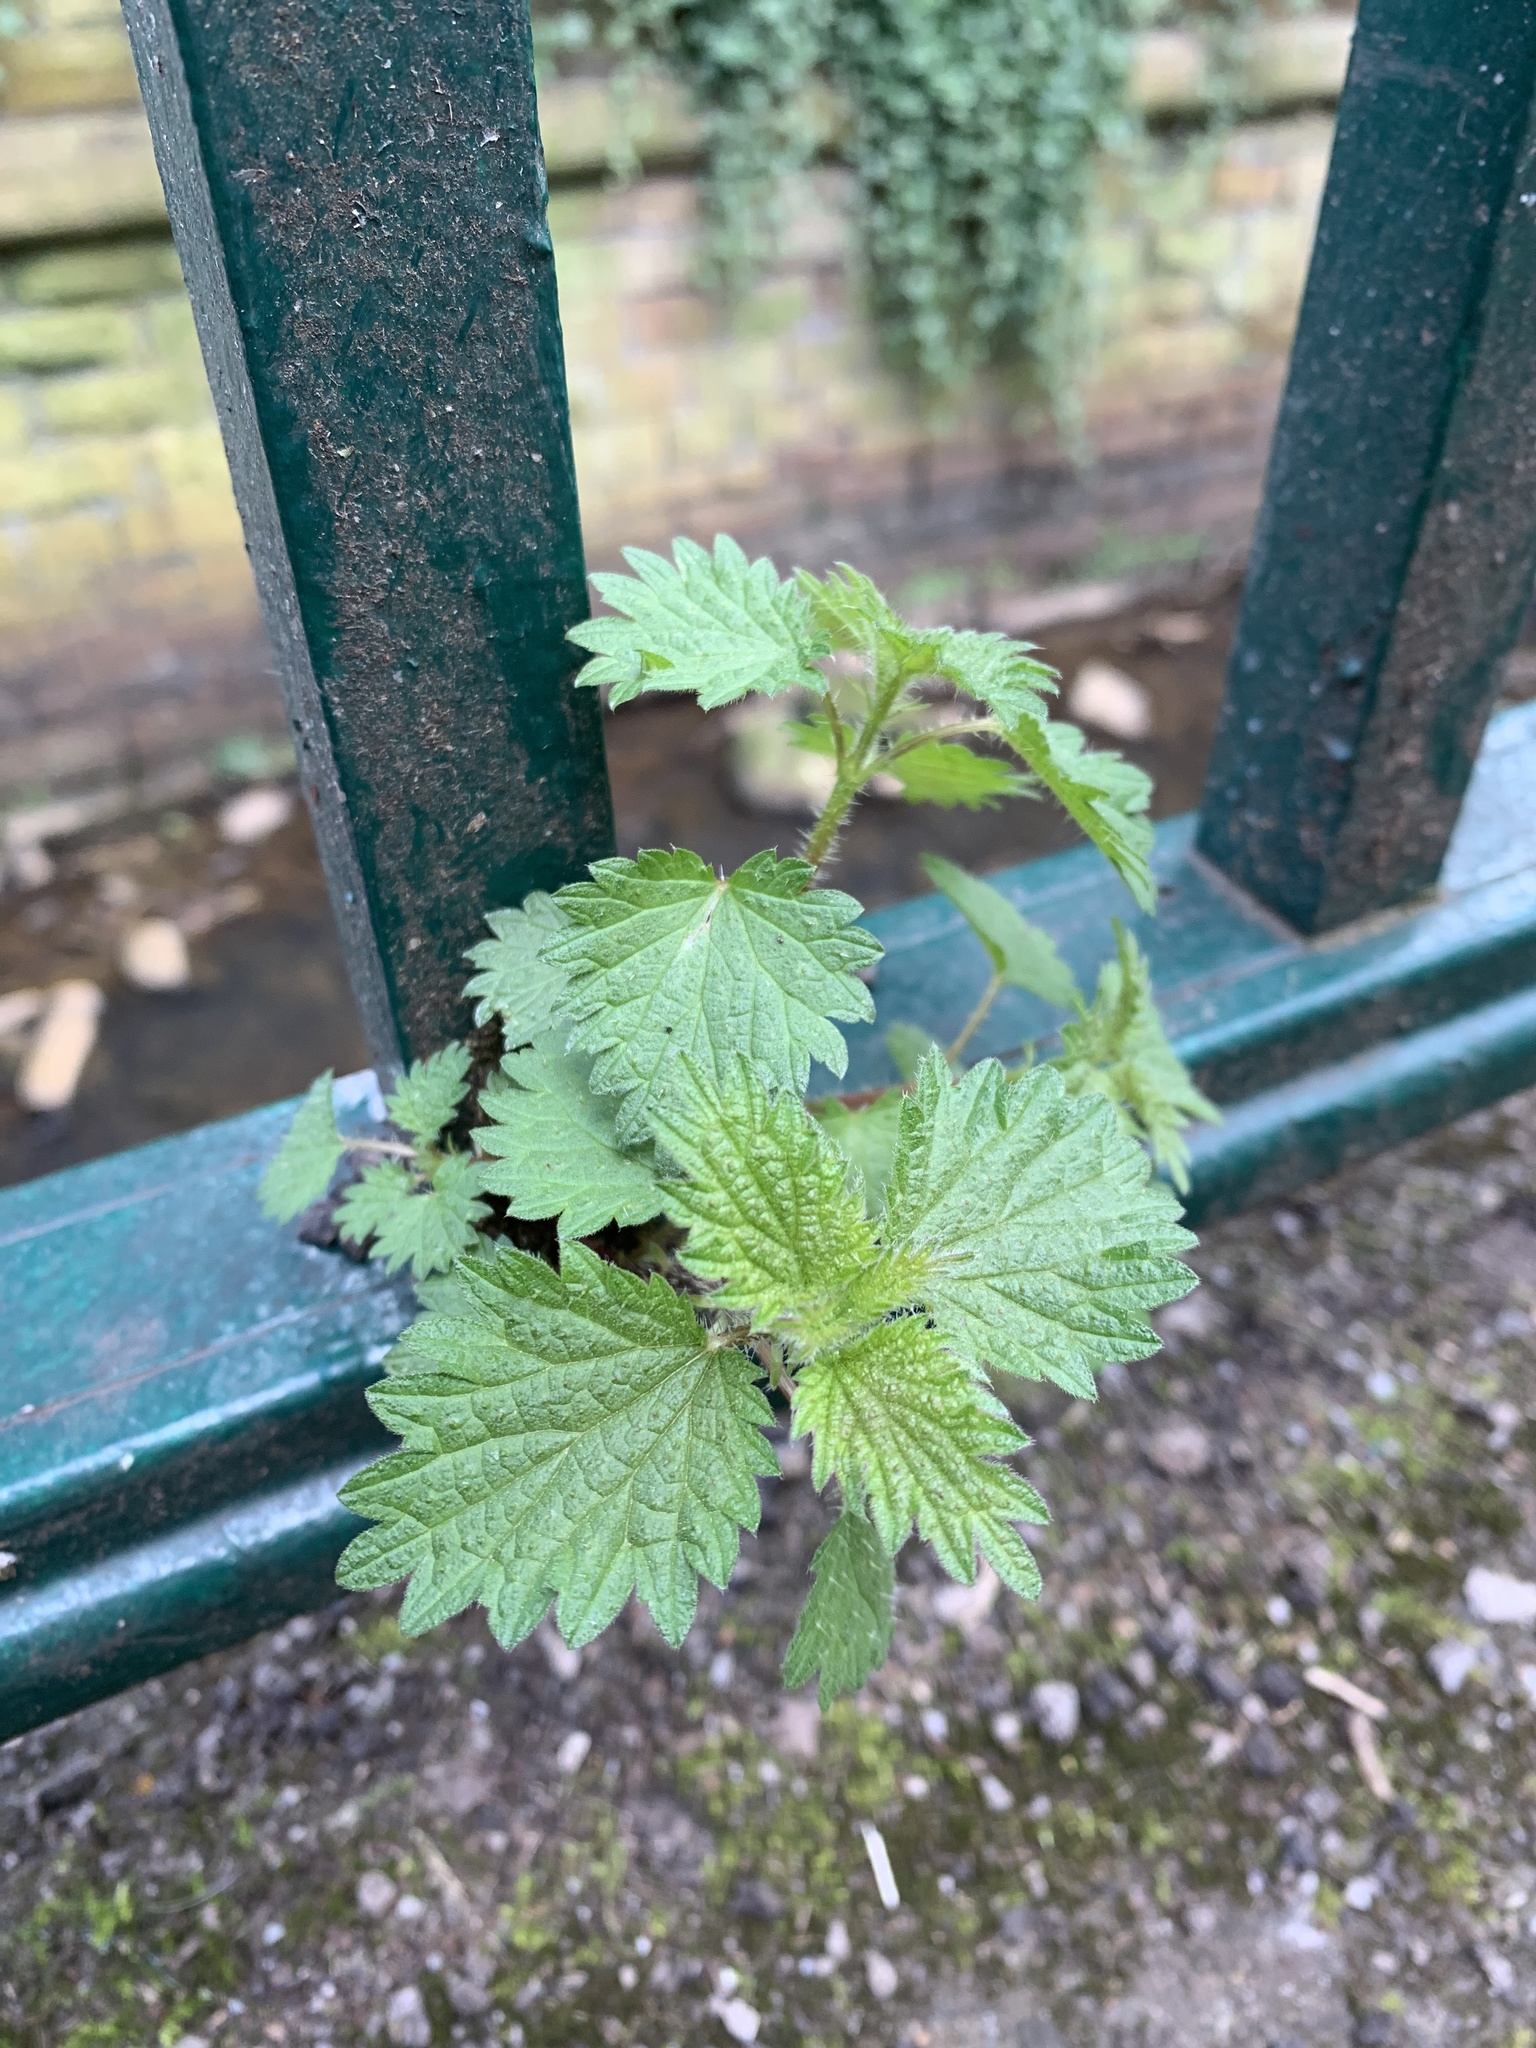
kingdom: Plantae
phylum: Tracheophyta
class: Magnoliopsida
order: Rosales
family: Urticaceae
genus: Urtica
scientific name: Urtica dioica
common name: Common nettle
